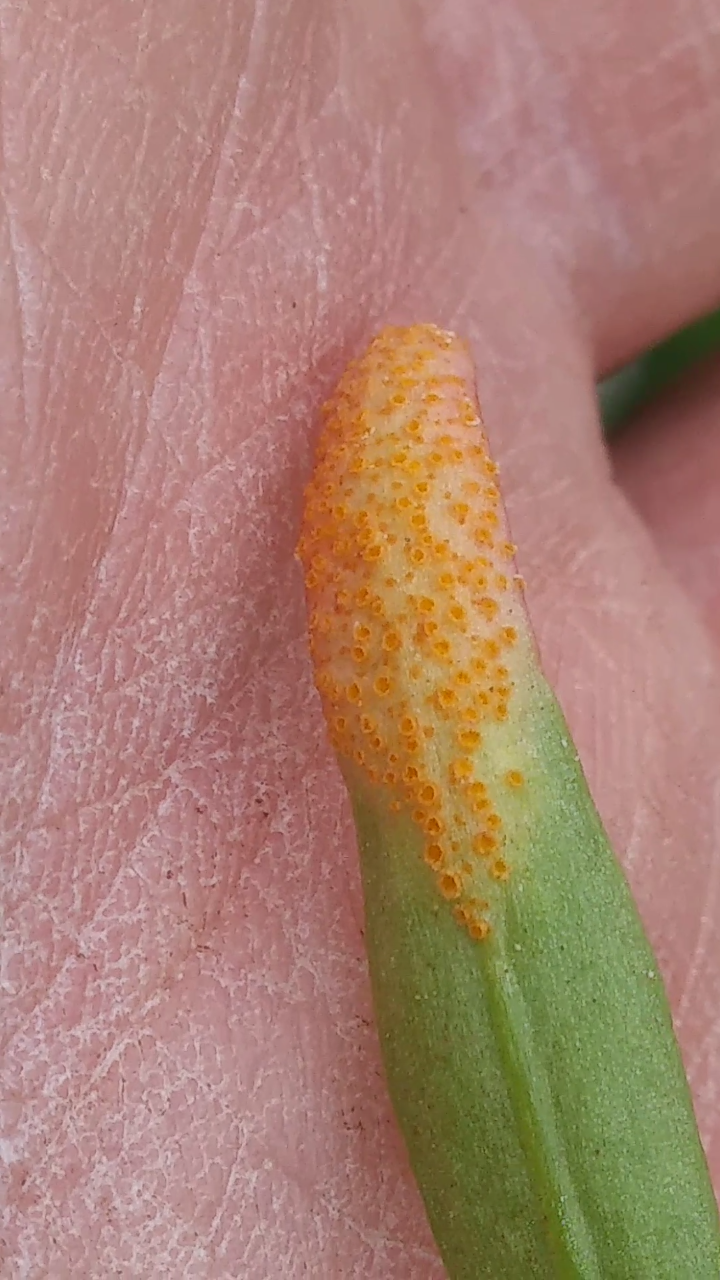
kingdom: Fungi
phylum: Basidiomycota
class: Pucciniomycetes
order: Pucciniales
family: Pucciniaceae
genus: Puccinia
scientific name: Puccinia mariae-wilsoniae
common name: Spring beauty rust
